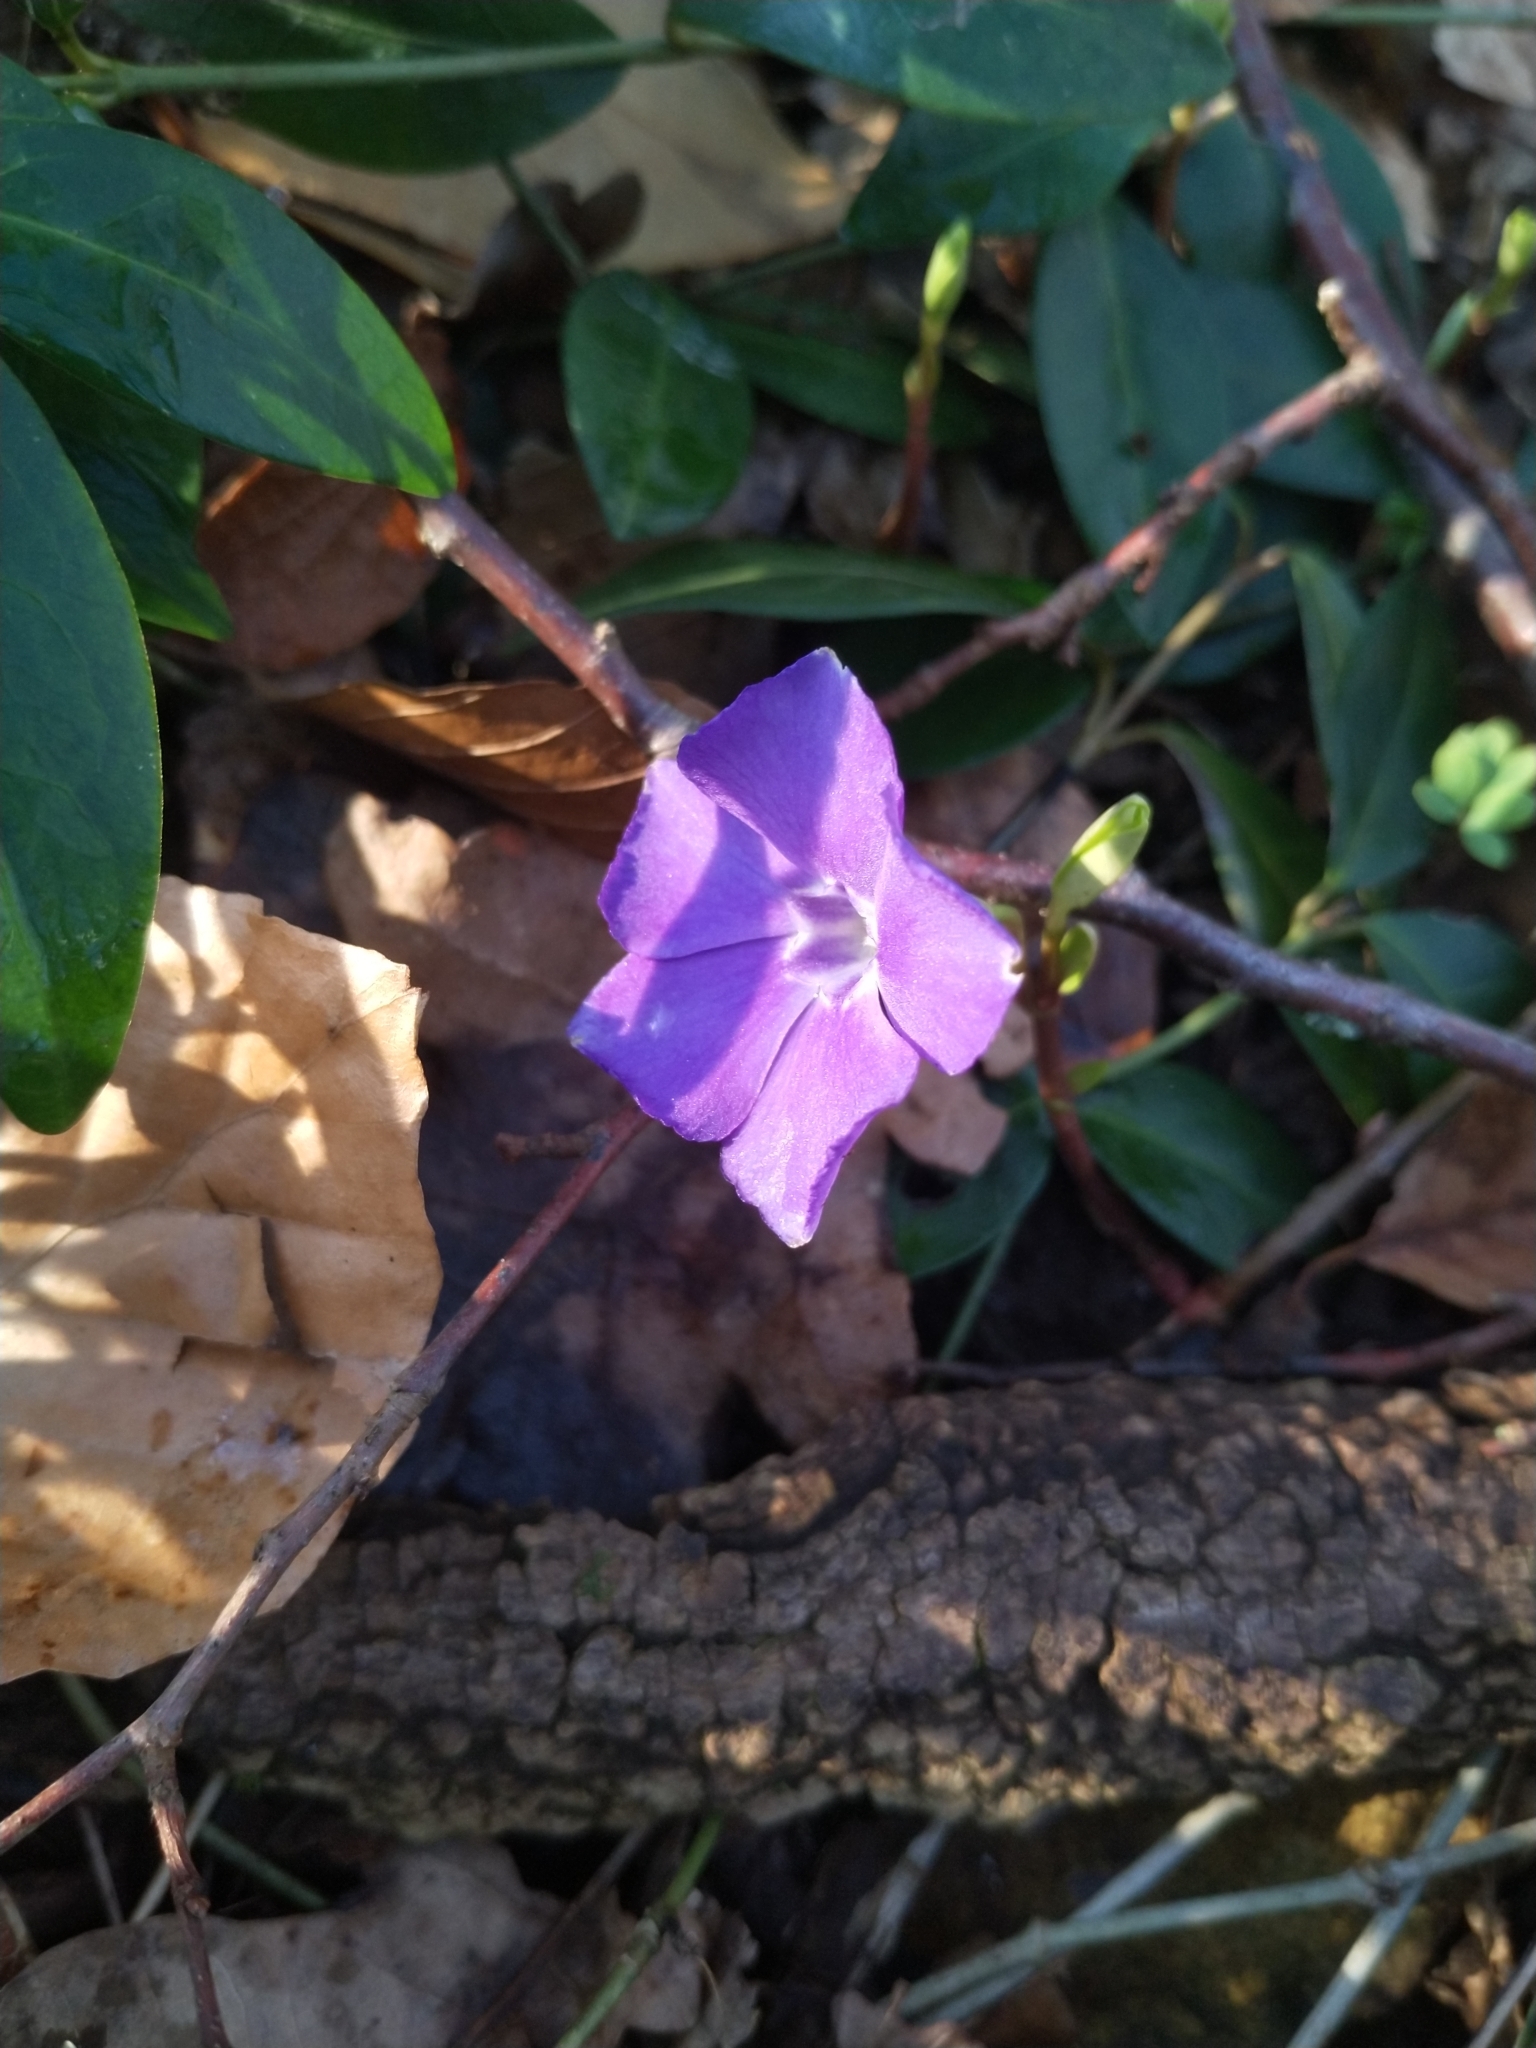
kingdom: Plantae
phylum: Tracheophyta
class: Magnoliopsida
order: Gentianales
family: Apocynaceae
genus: Vinca
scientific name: Vinca minor
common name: Lesser periwinkle
